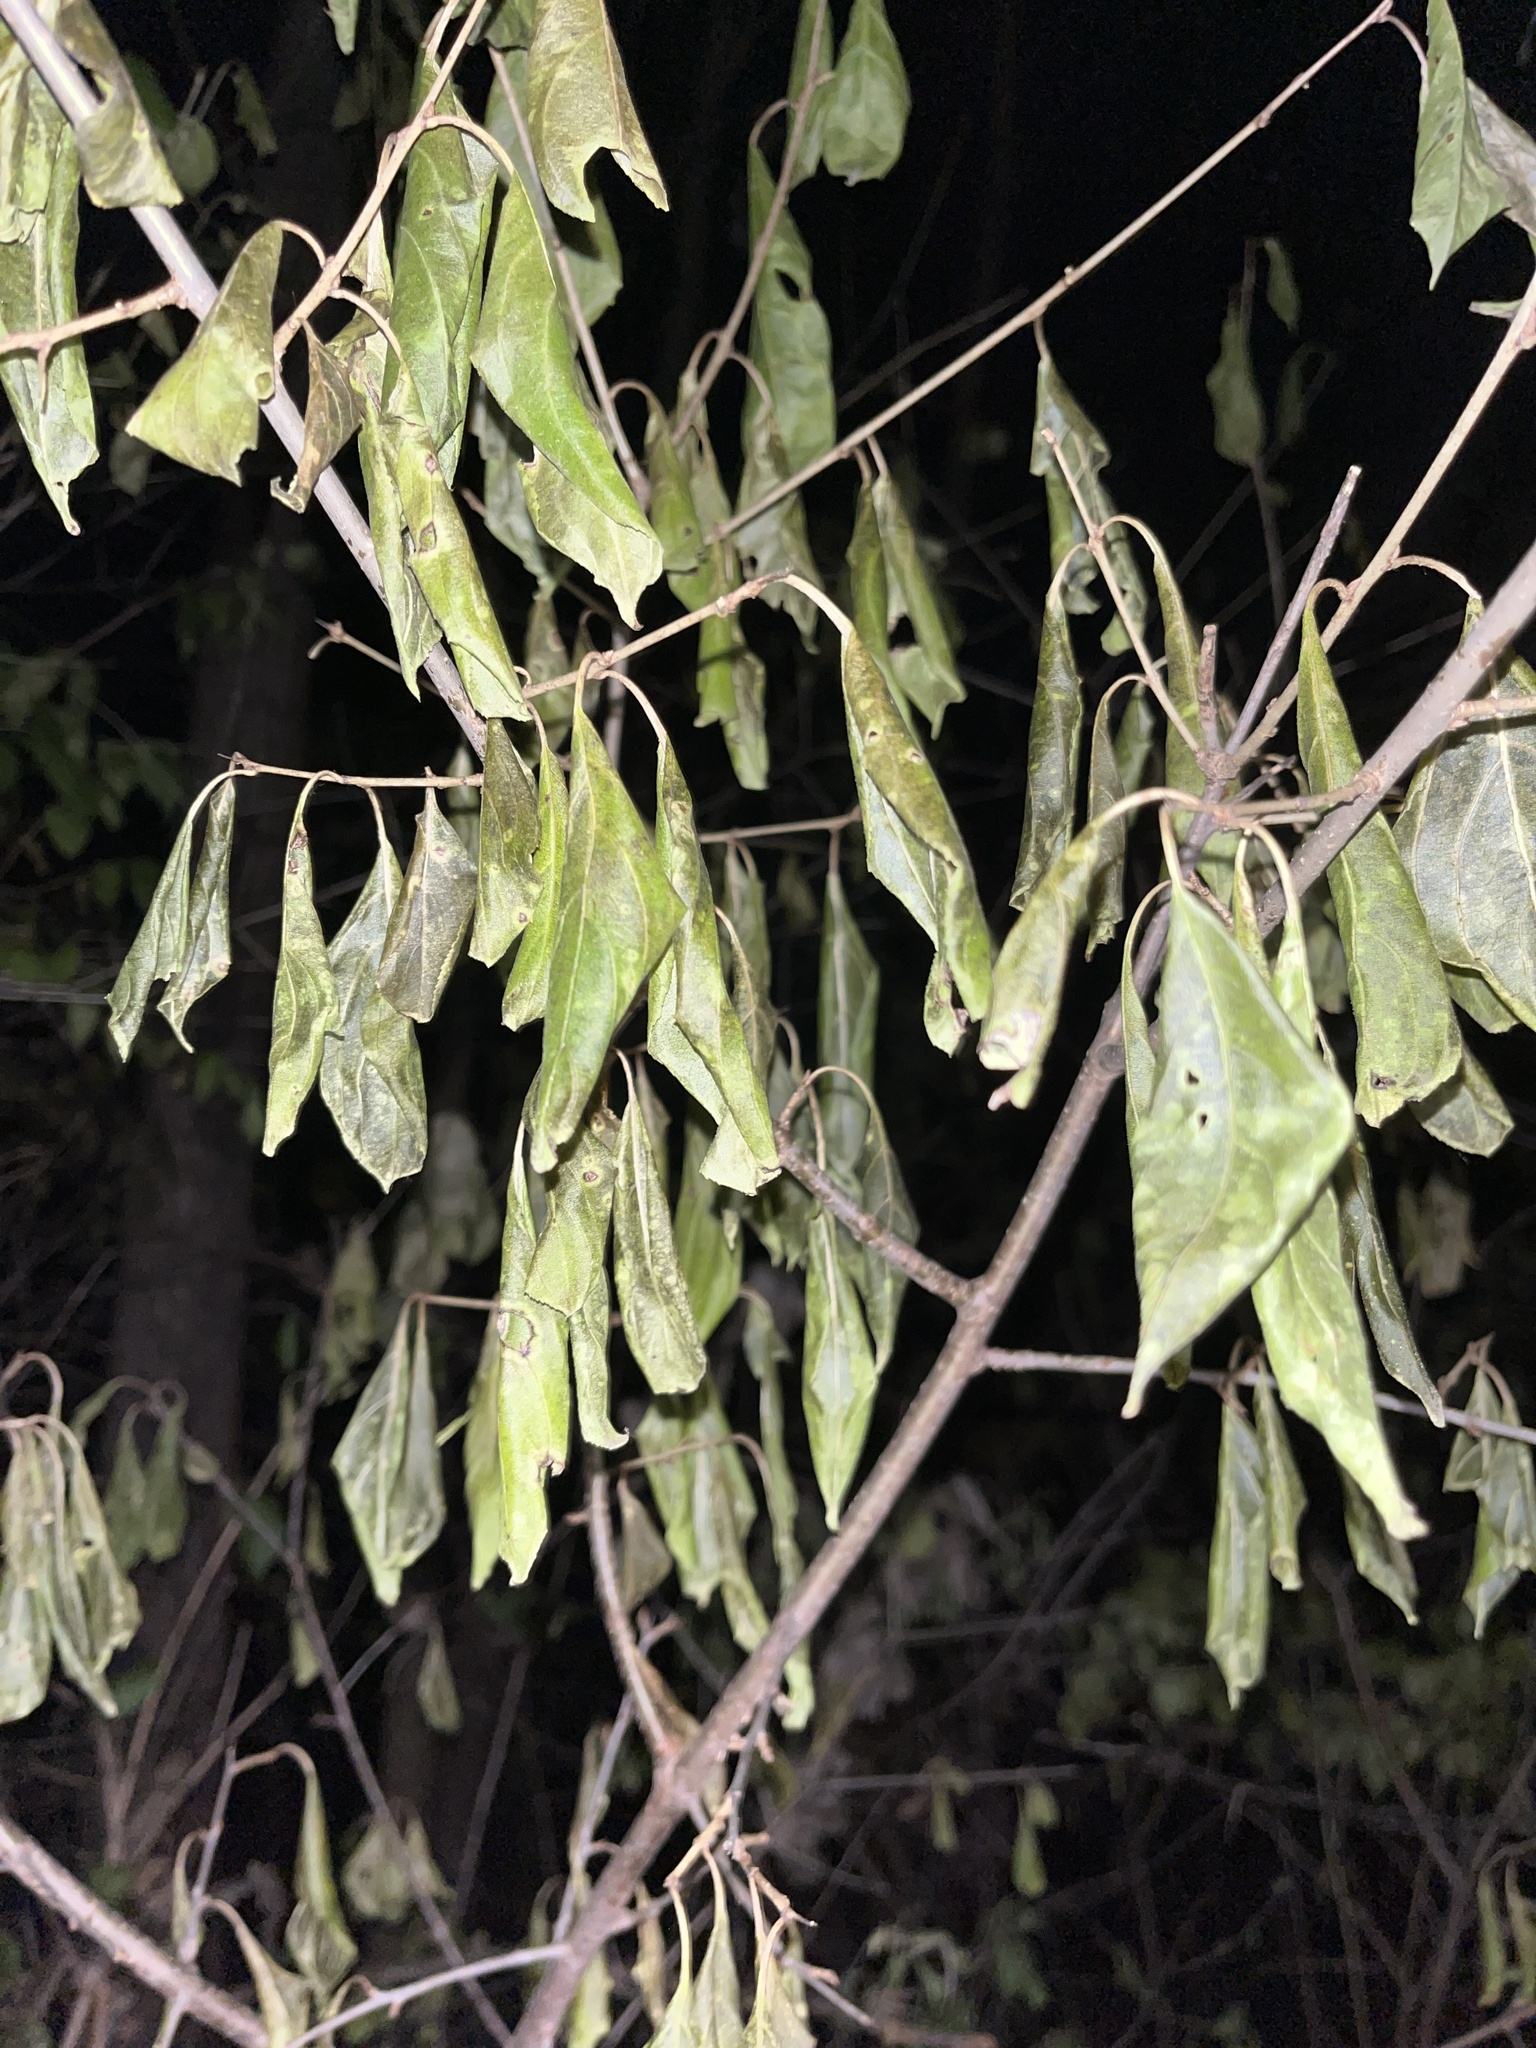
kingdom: Plantae
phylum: Tracheophyta
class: Magnoliopsida
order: Rosales
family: Rhamnaceae
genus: Rhamnus
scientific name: Rhamnus cathartica
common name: Common buckthorn
